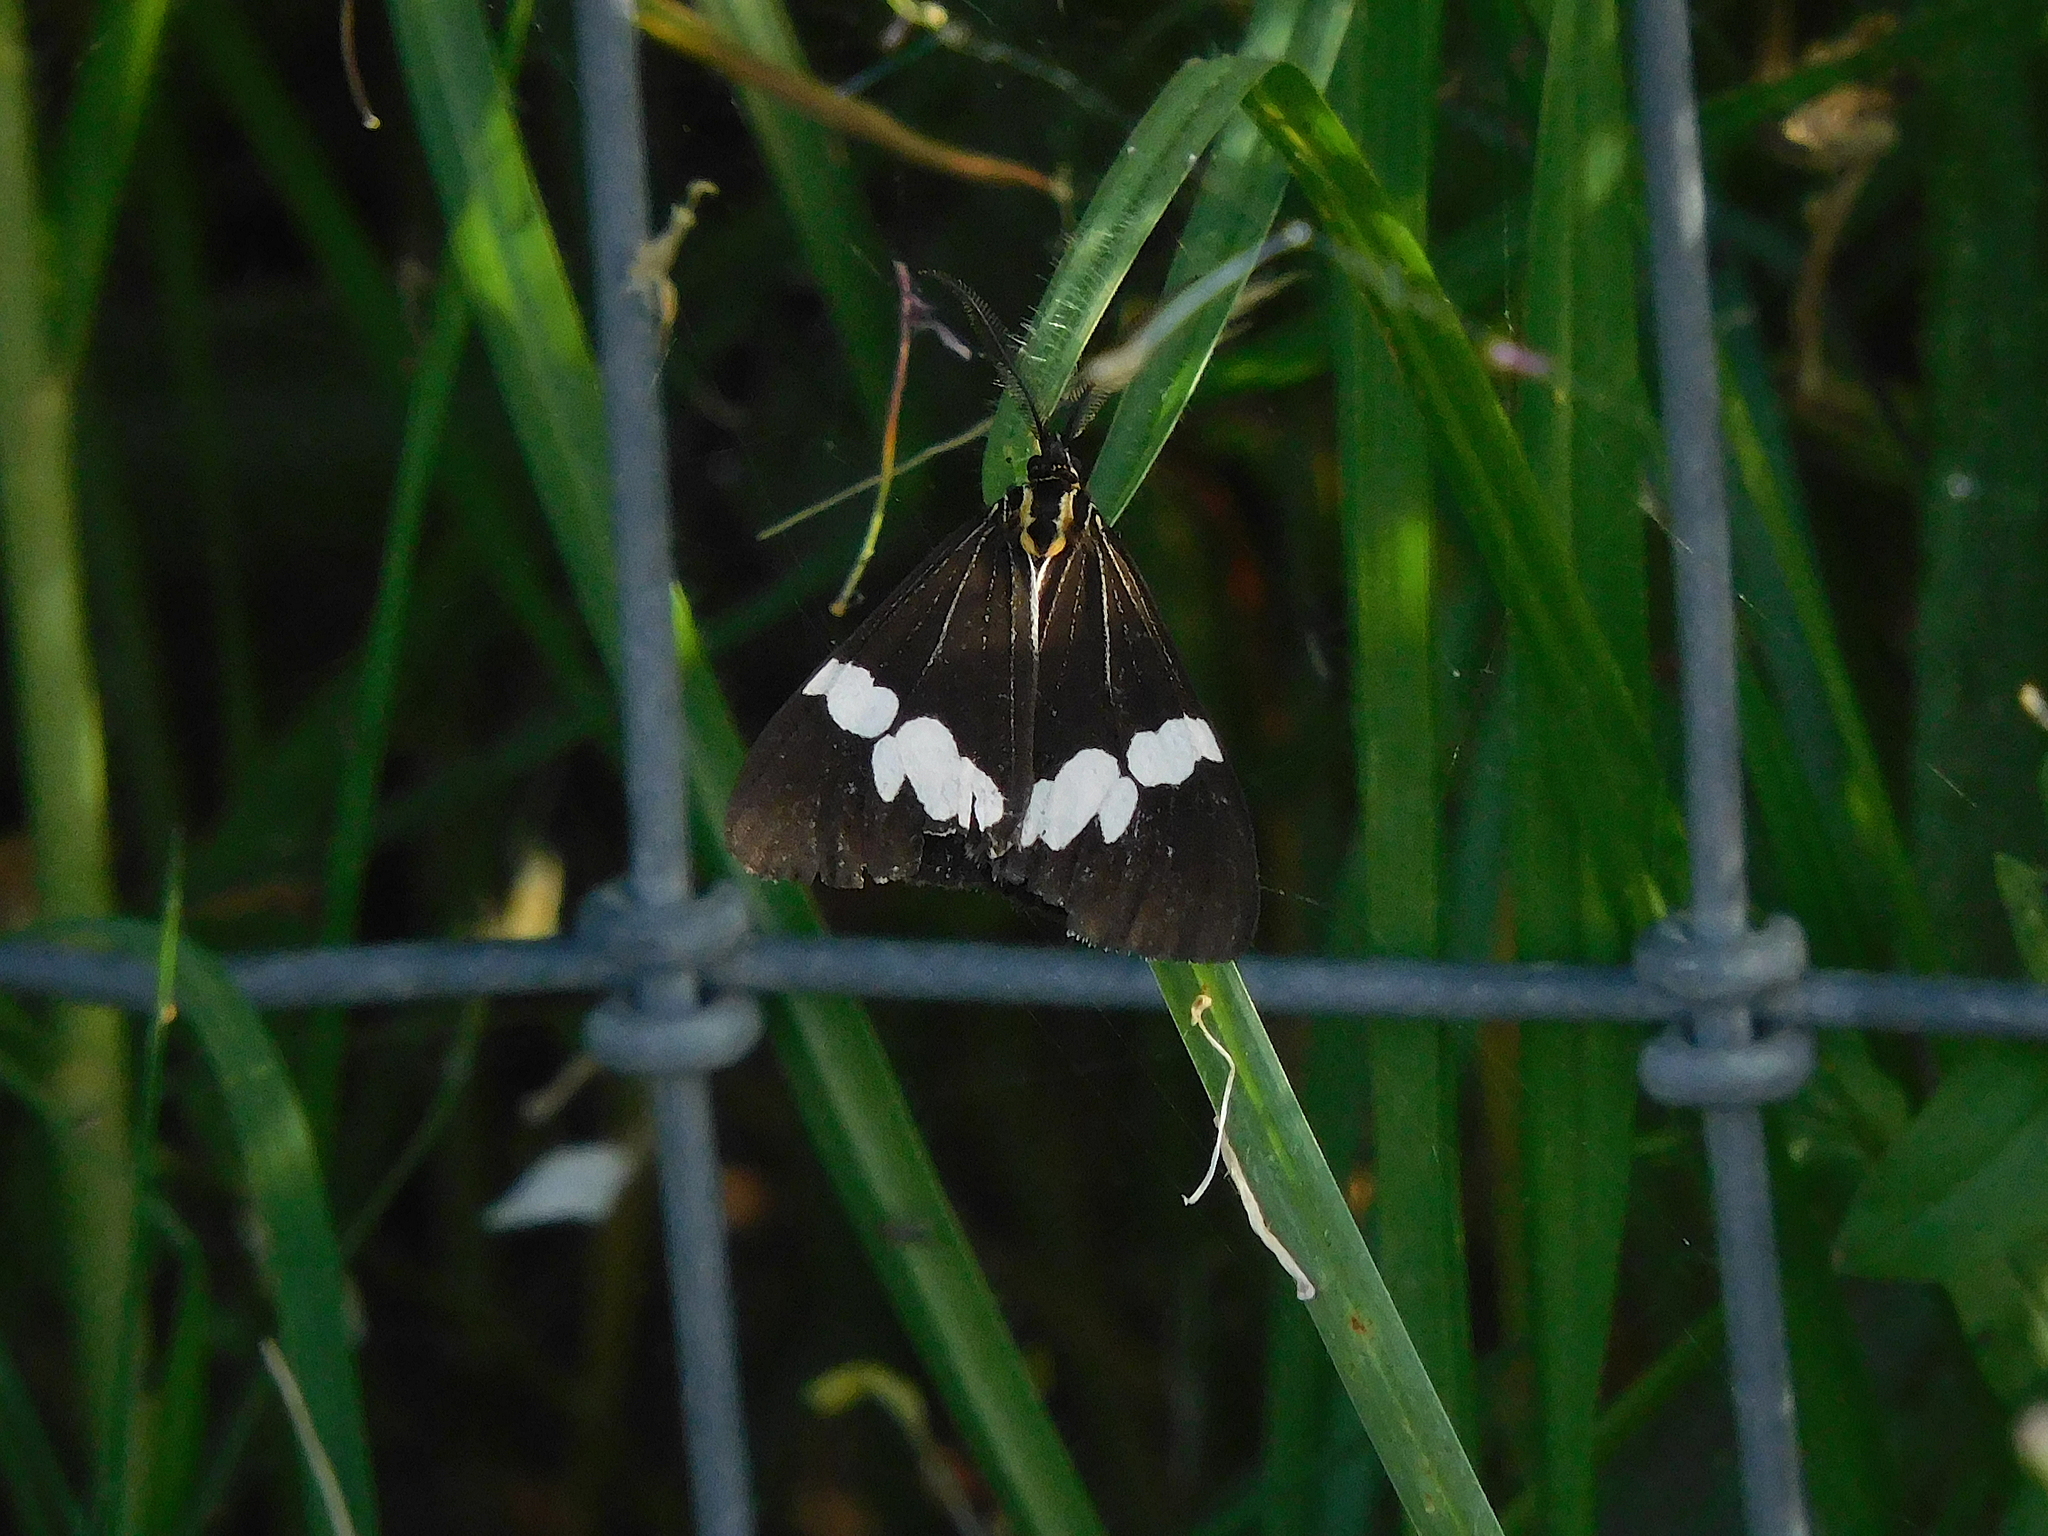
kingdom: Animalia
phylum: Arthropoda
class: Insecta
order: Lepidoptera
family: Erebidae
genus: Nyctemera
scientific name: Nyctemera
